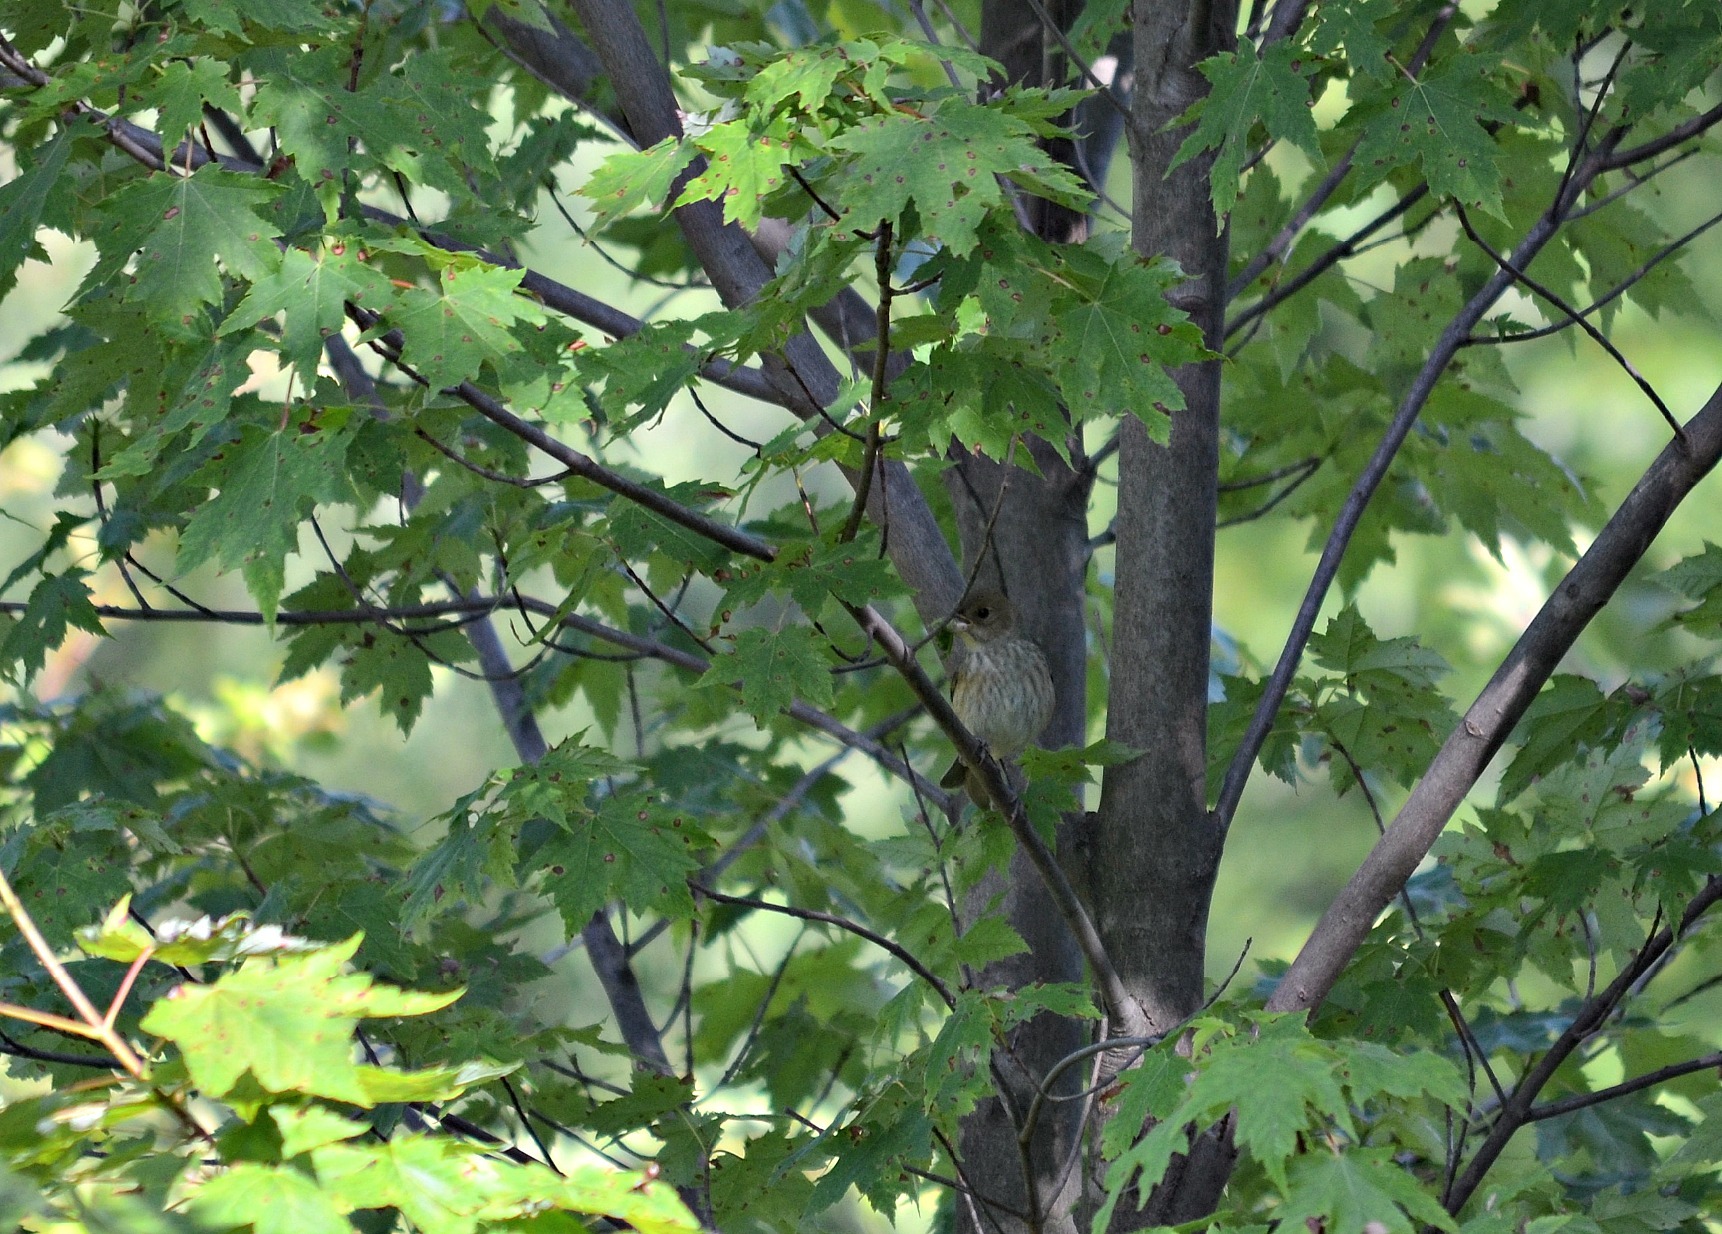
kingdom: Animalia
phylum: Chordata
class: Aves
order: Passeriformes
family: Fringillidae
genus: Haemorhous
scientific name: Haemorhous mexicanus
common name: House finch
